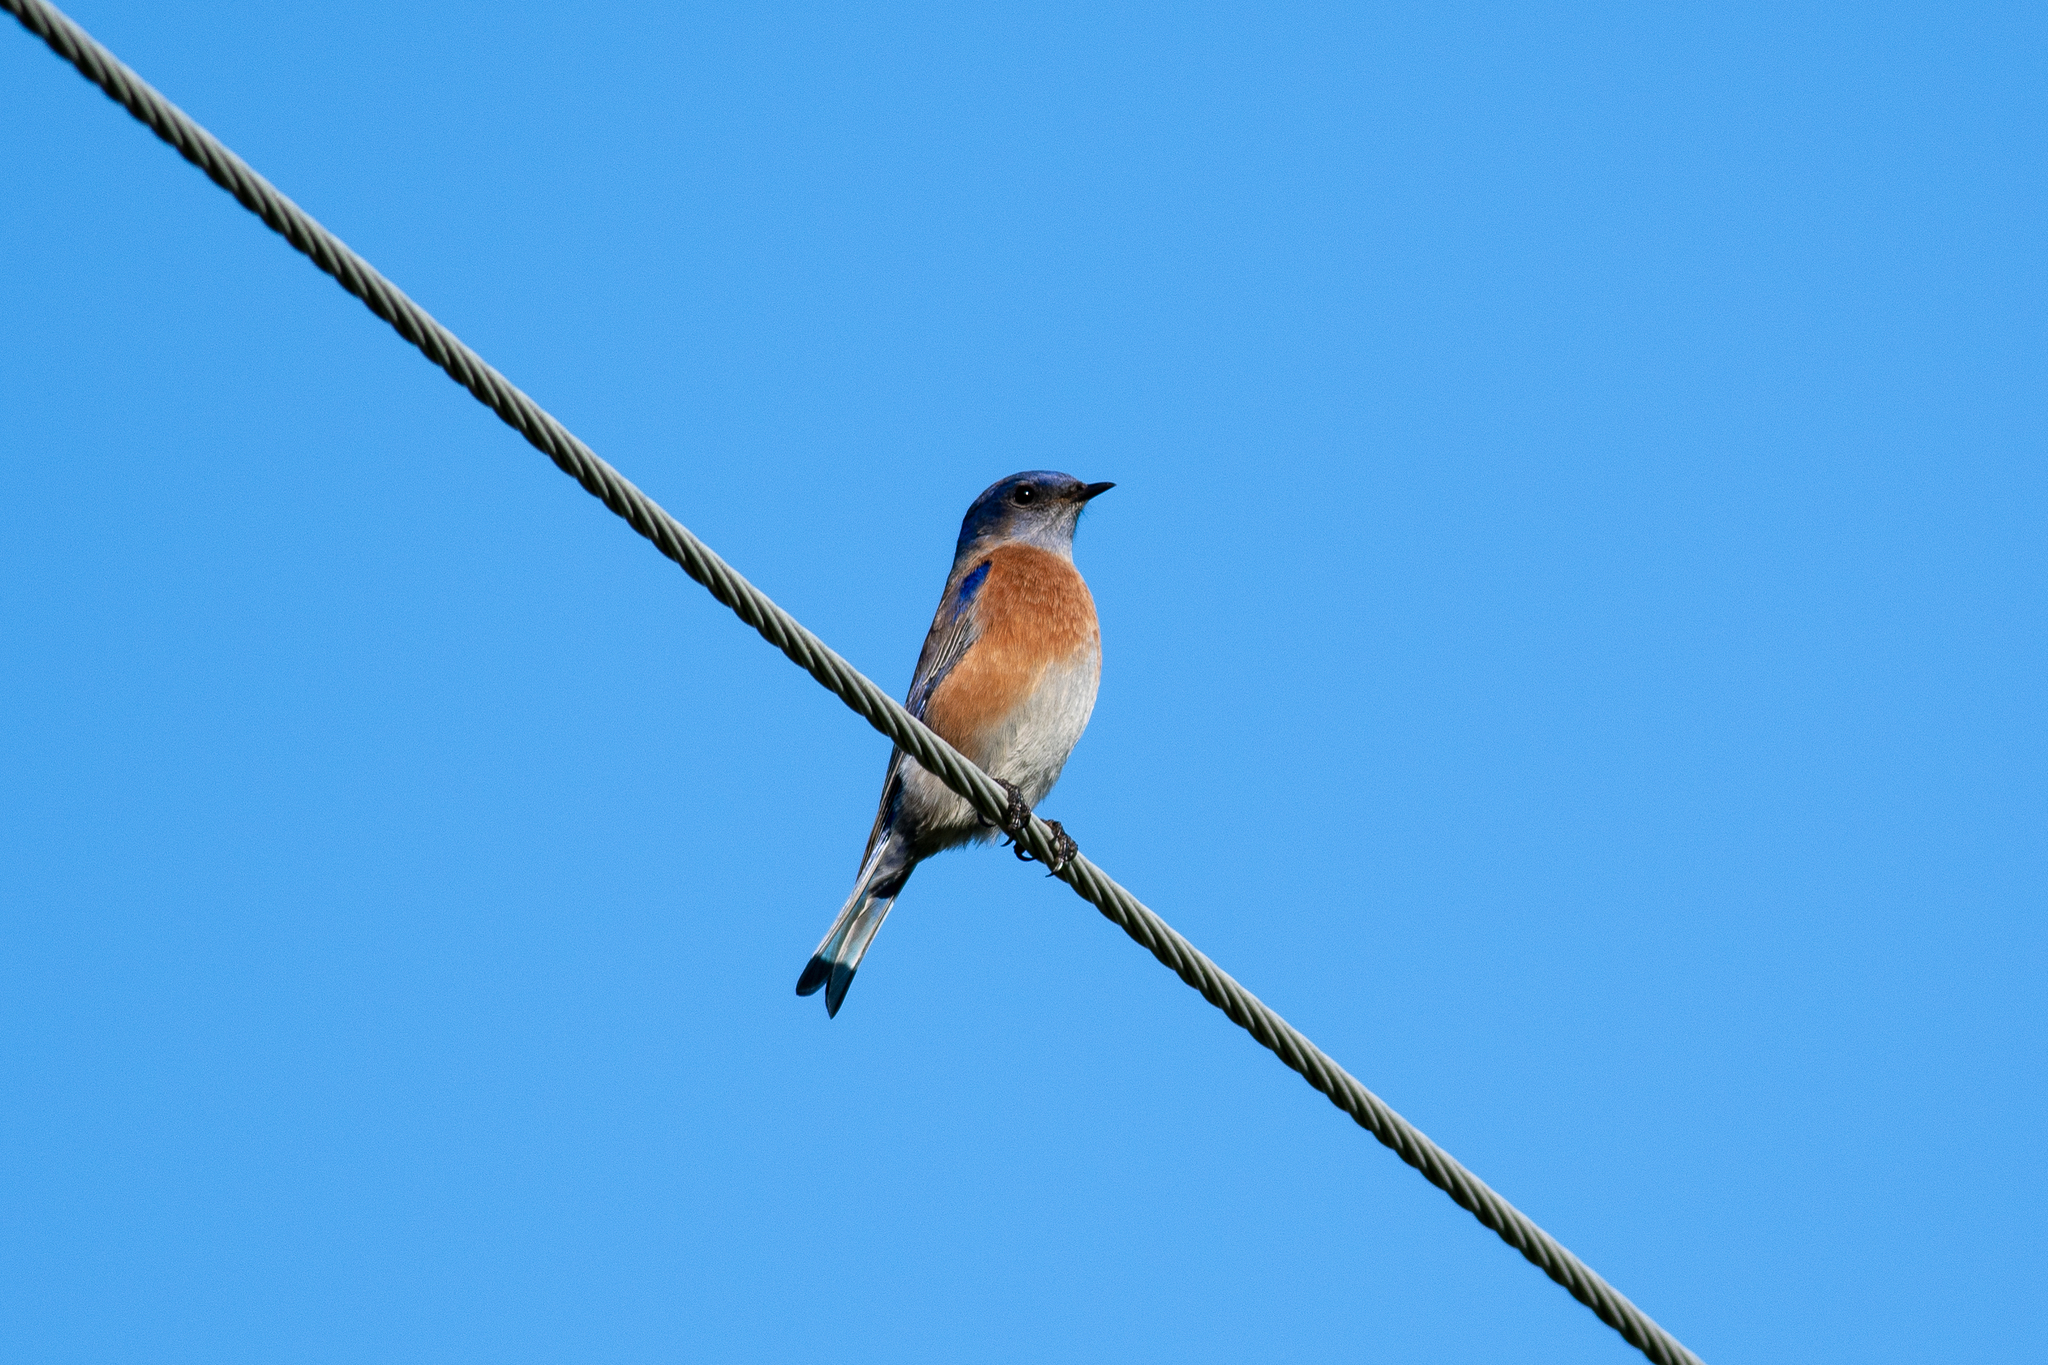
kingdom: Animalia
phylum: Chordata
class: Aves
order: Passeriformes
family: Turdidae
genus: Sialia
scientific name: Sialia mexicana
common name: Western bluebird
